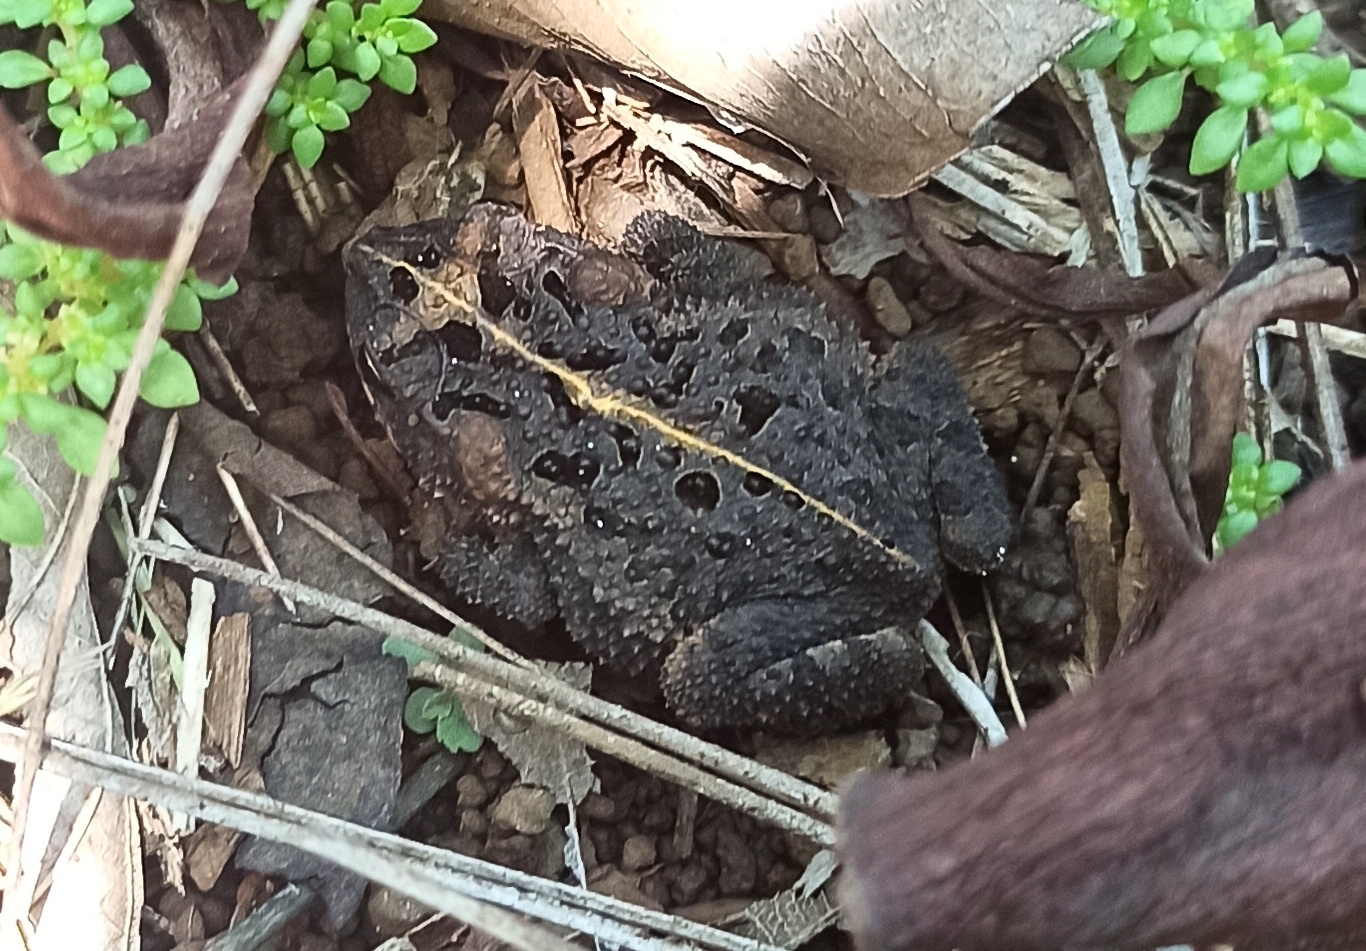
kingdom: Animalia
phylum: Chordata
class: Amphibia
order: Anura
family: Bufonidae
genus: Incilius
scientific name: Incilius coccifer
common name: Southern round-gland toad
